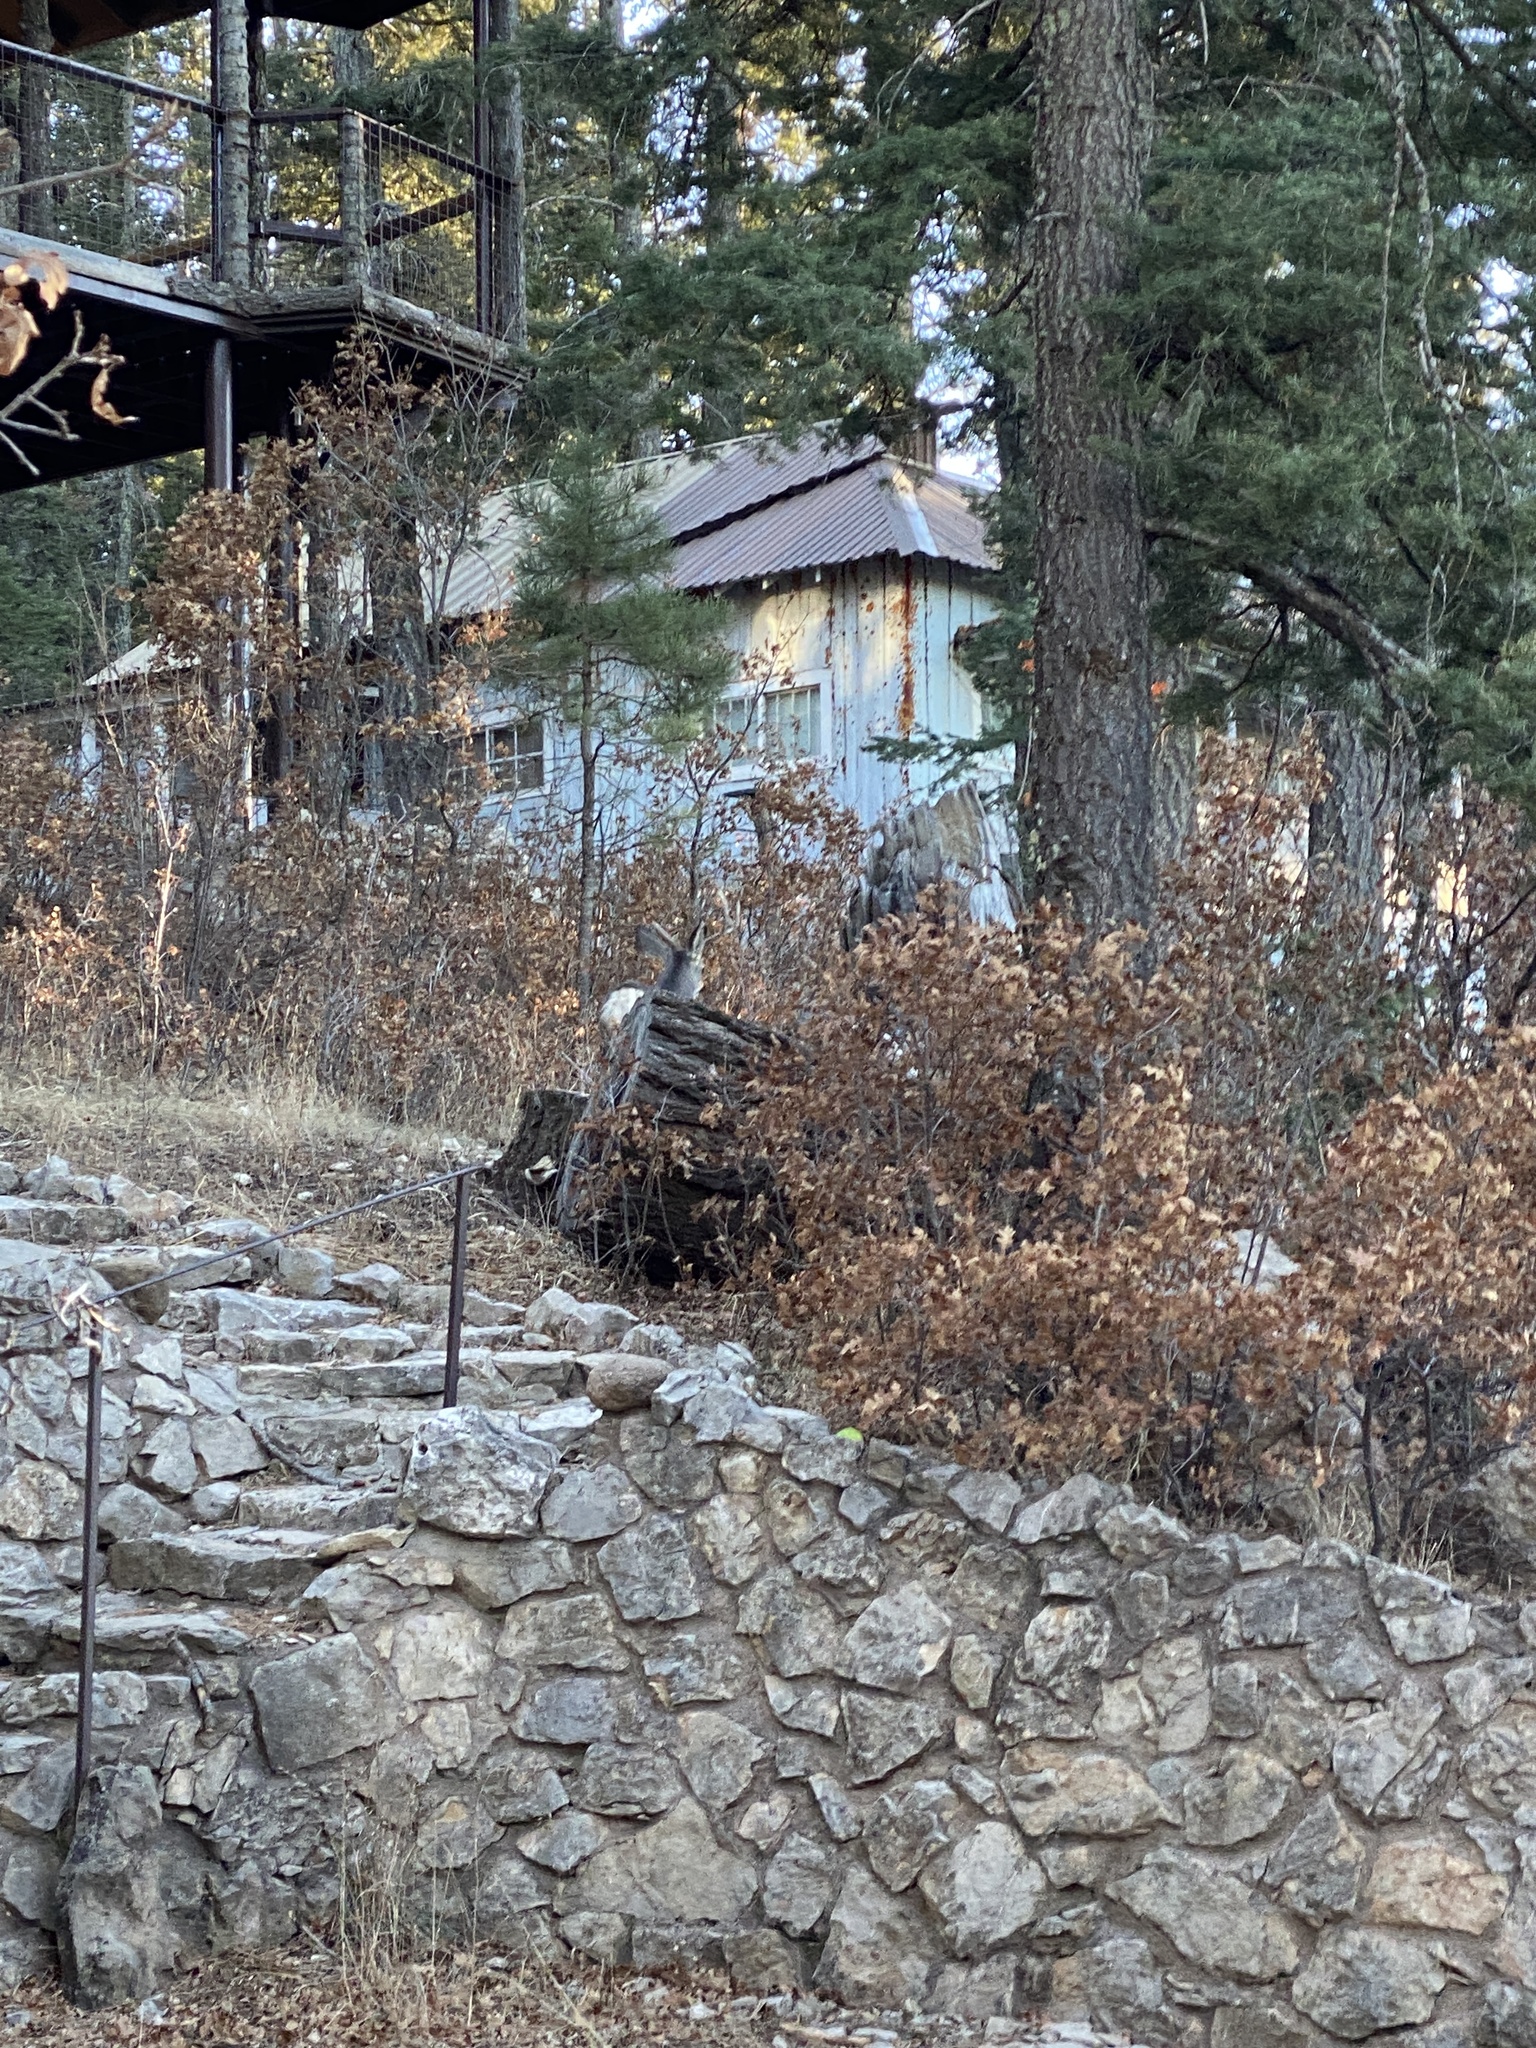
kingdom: Animalia
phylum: Chordata
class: Mammalia
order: Artiodactyla
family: Cervidae
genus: Odocoileus
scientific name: Odocoileus hemionus
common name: Mule deer
